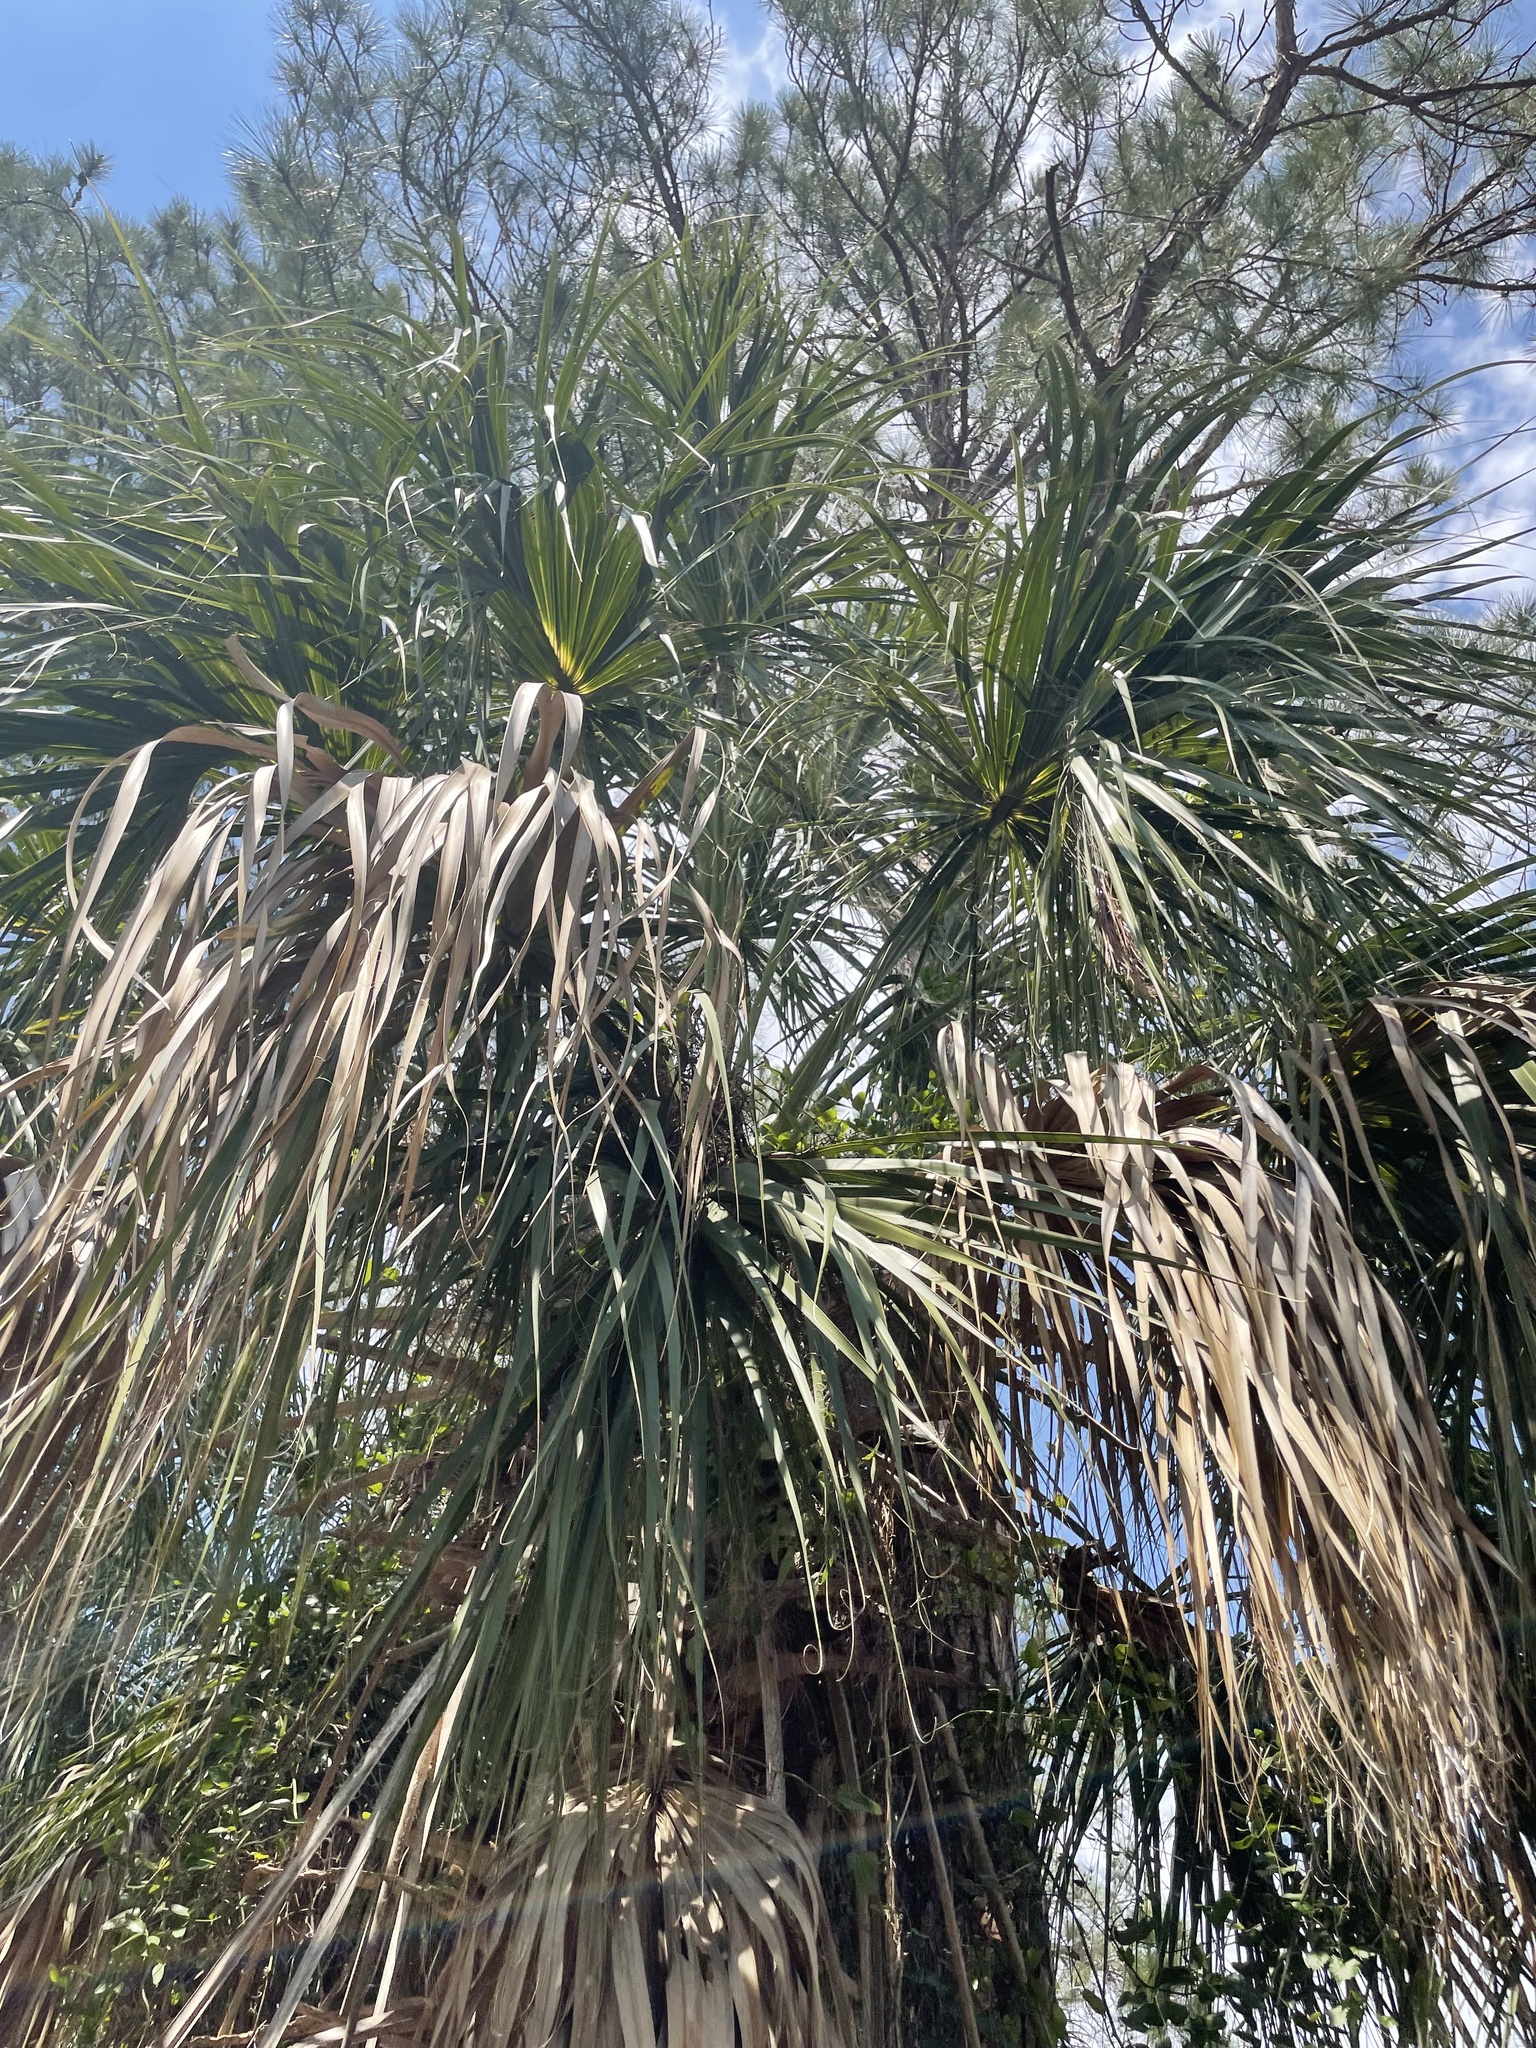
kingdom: Plantae
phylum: Tracheophyta
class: Liliopsida
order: Arecales
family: Arecaceae
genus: Sabal
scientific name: Sabal palmetto
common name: Blue palmetto
